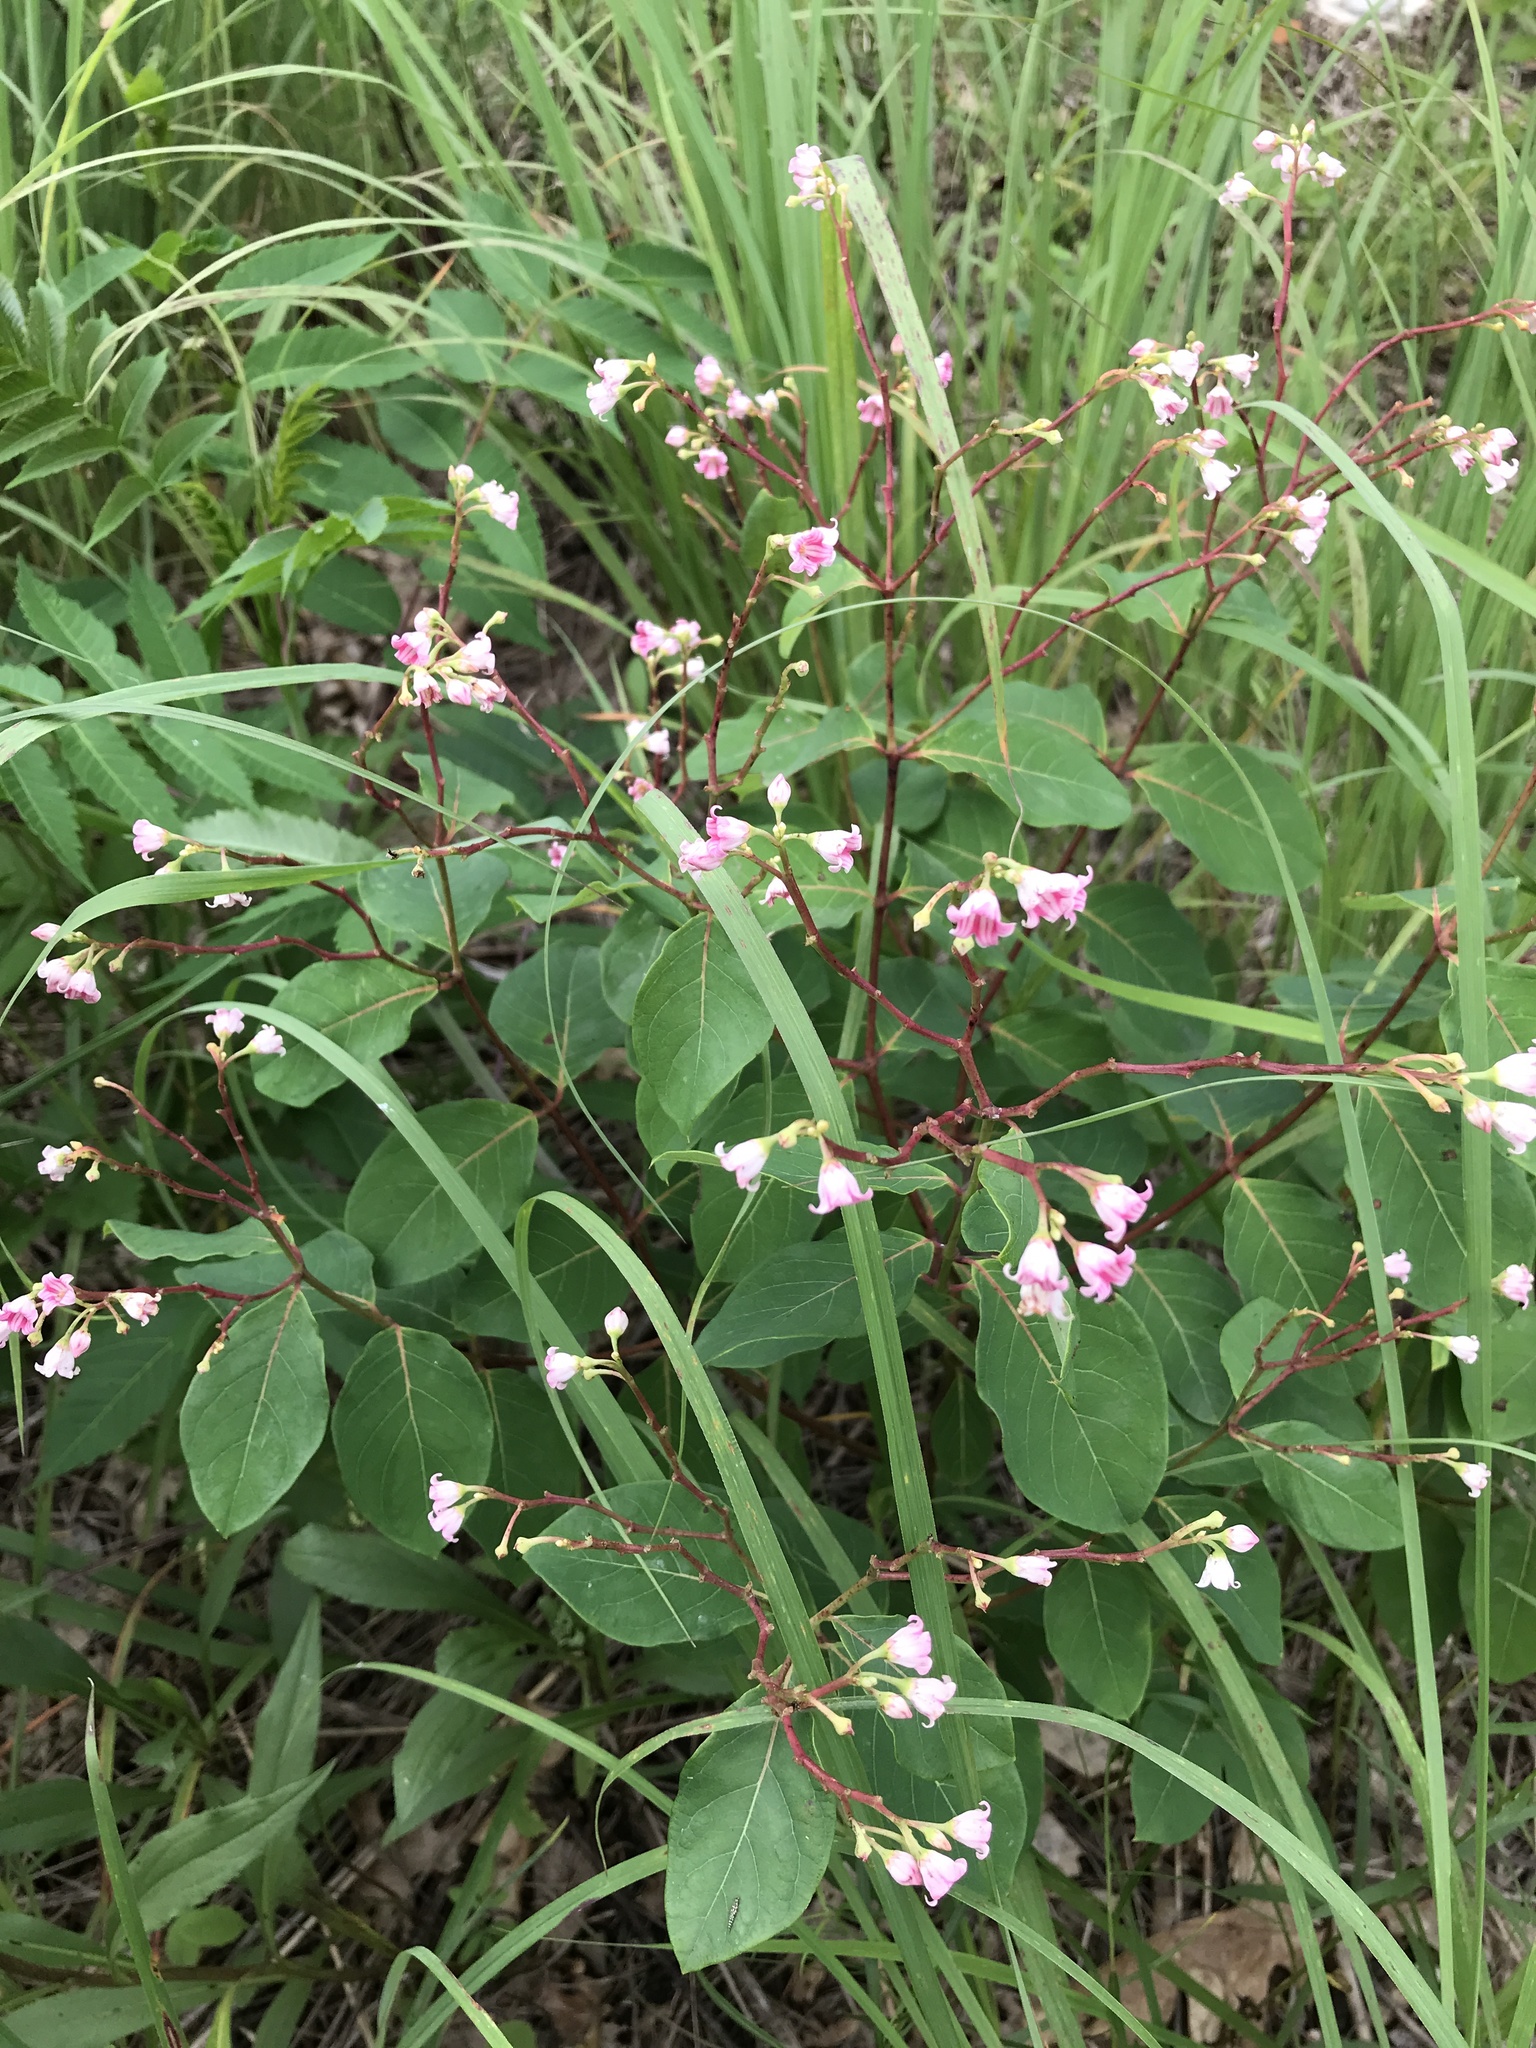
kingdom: Plantae
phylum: Tracheophyta
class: Magnoliopsida
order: Gentianales
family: Apocynaceae
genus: Apocynum
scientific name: Apocynum androsaemifolium
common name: Spreading dogbane
